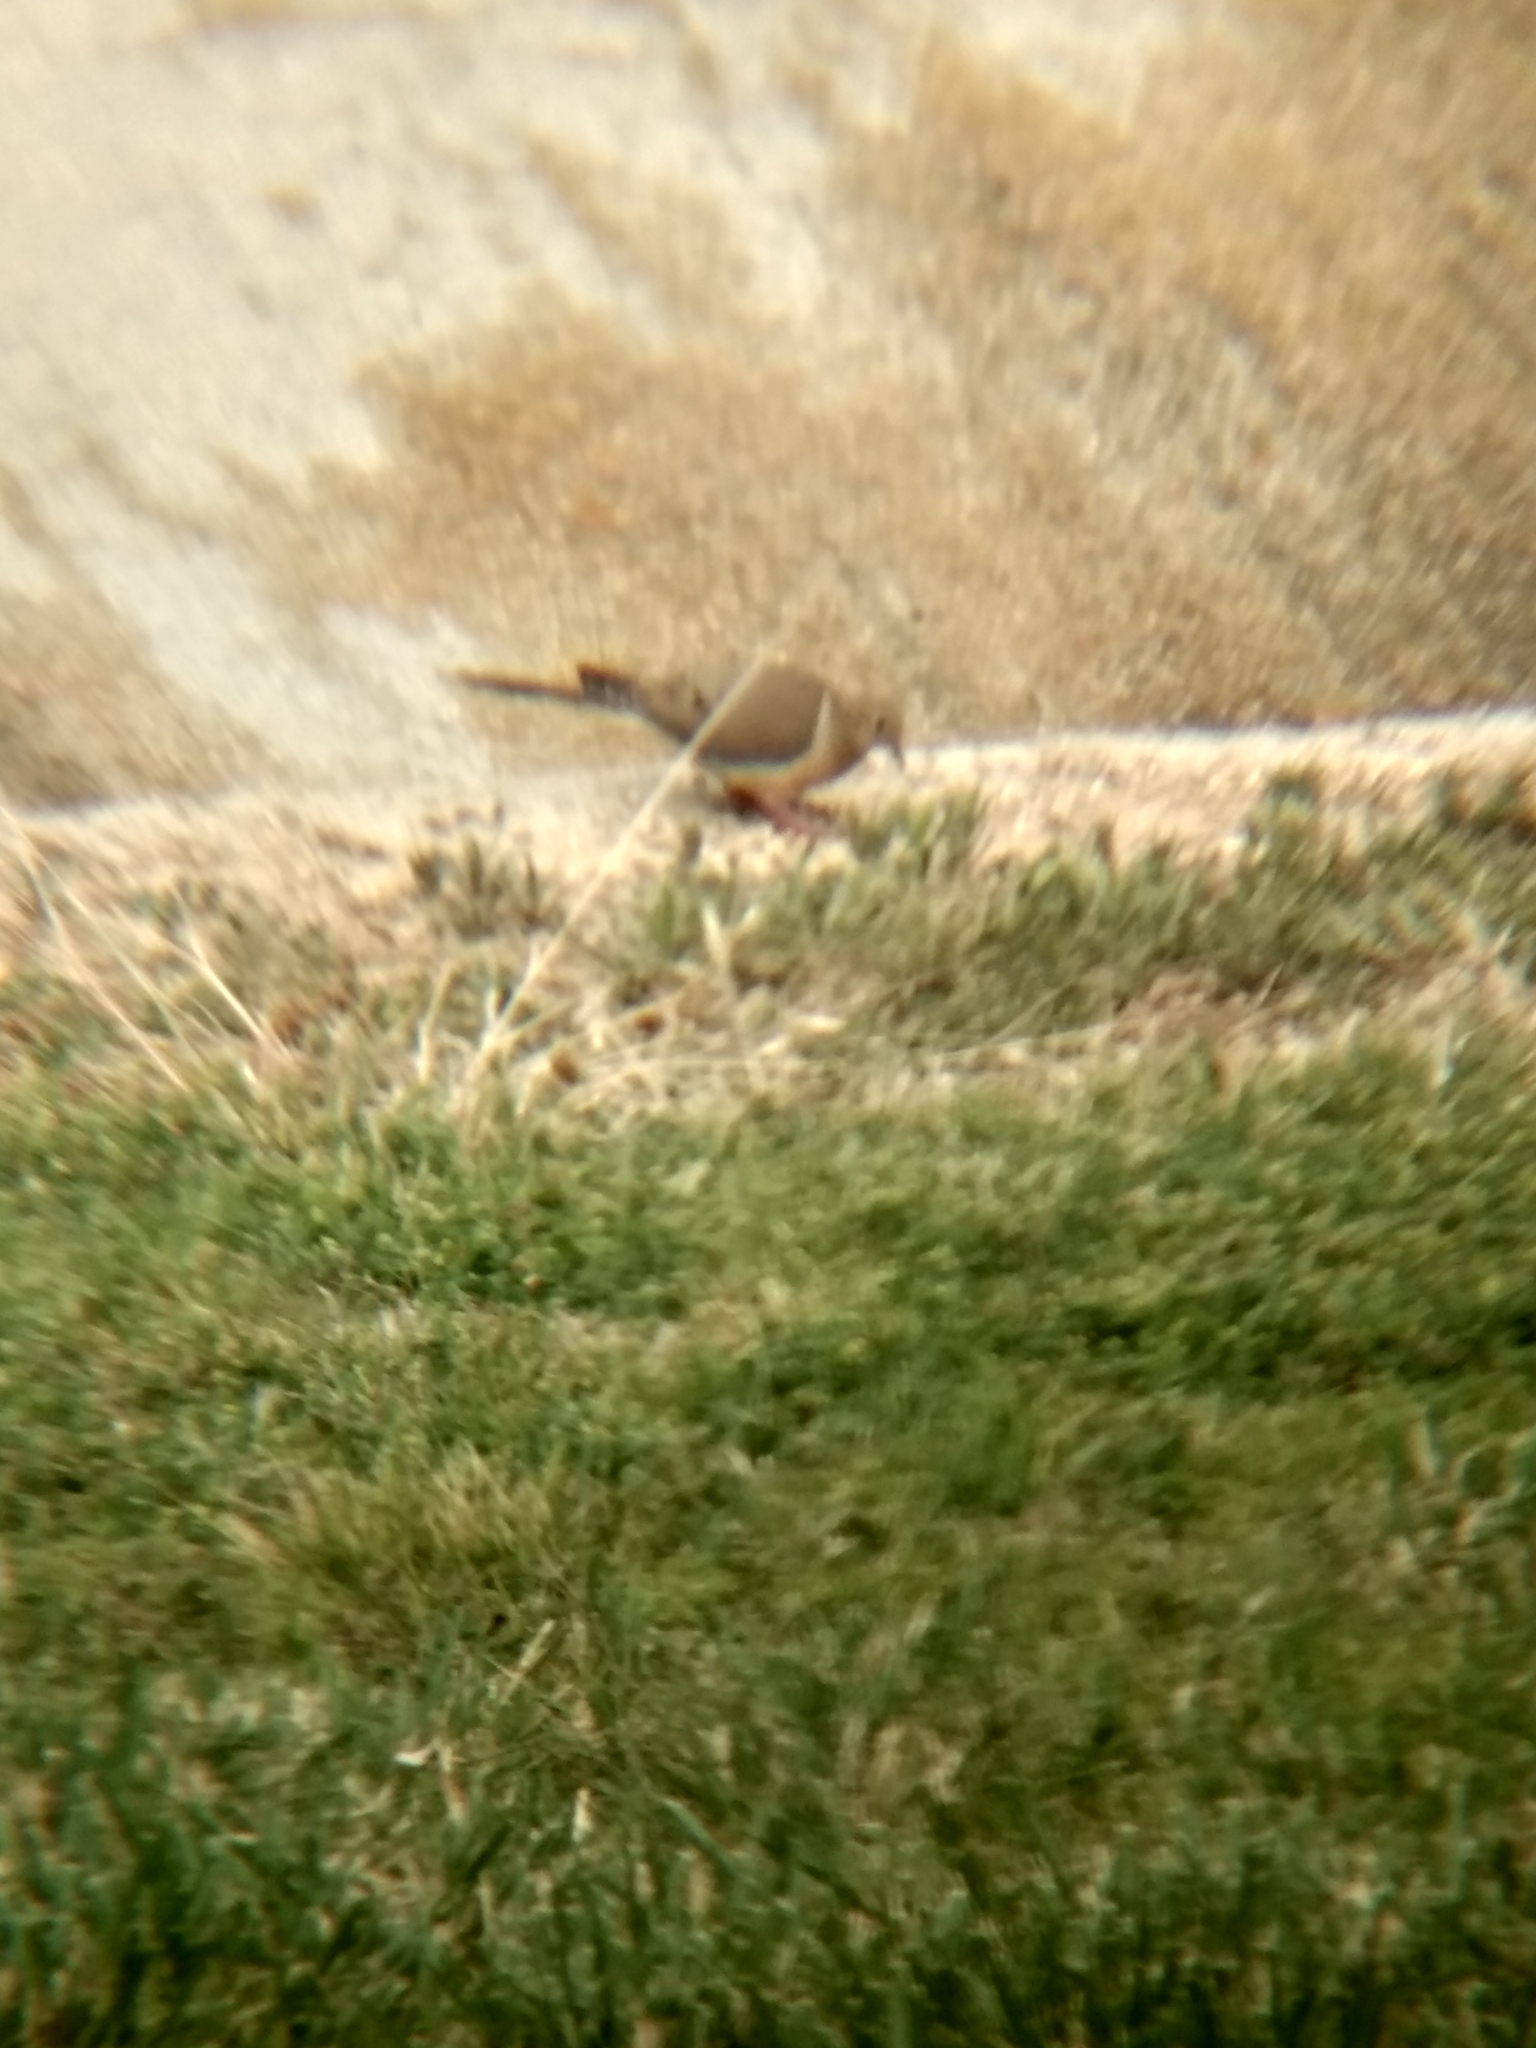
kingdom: Animalia
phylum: Chordata
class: Aves
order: Columbiformes
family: Columbidae
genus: Zenaida
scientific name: Zenaida macroura
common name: Mourning dove
